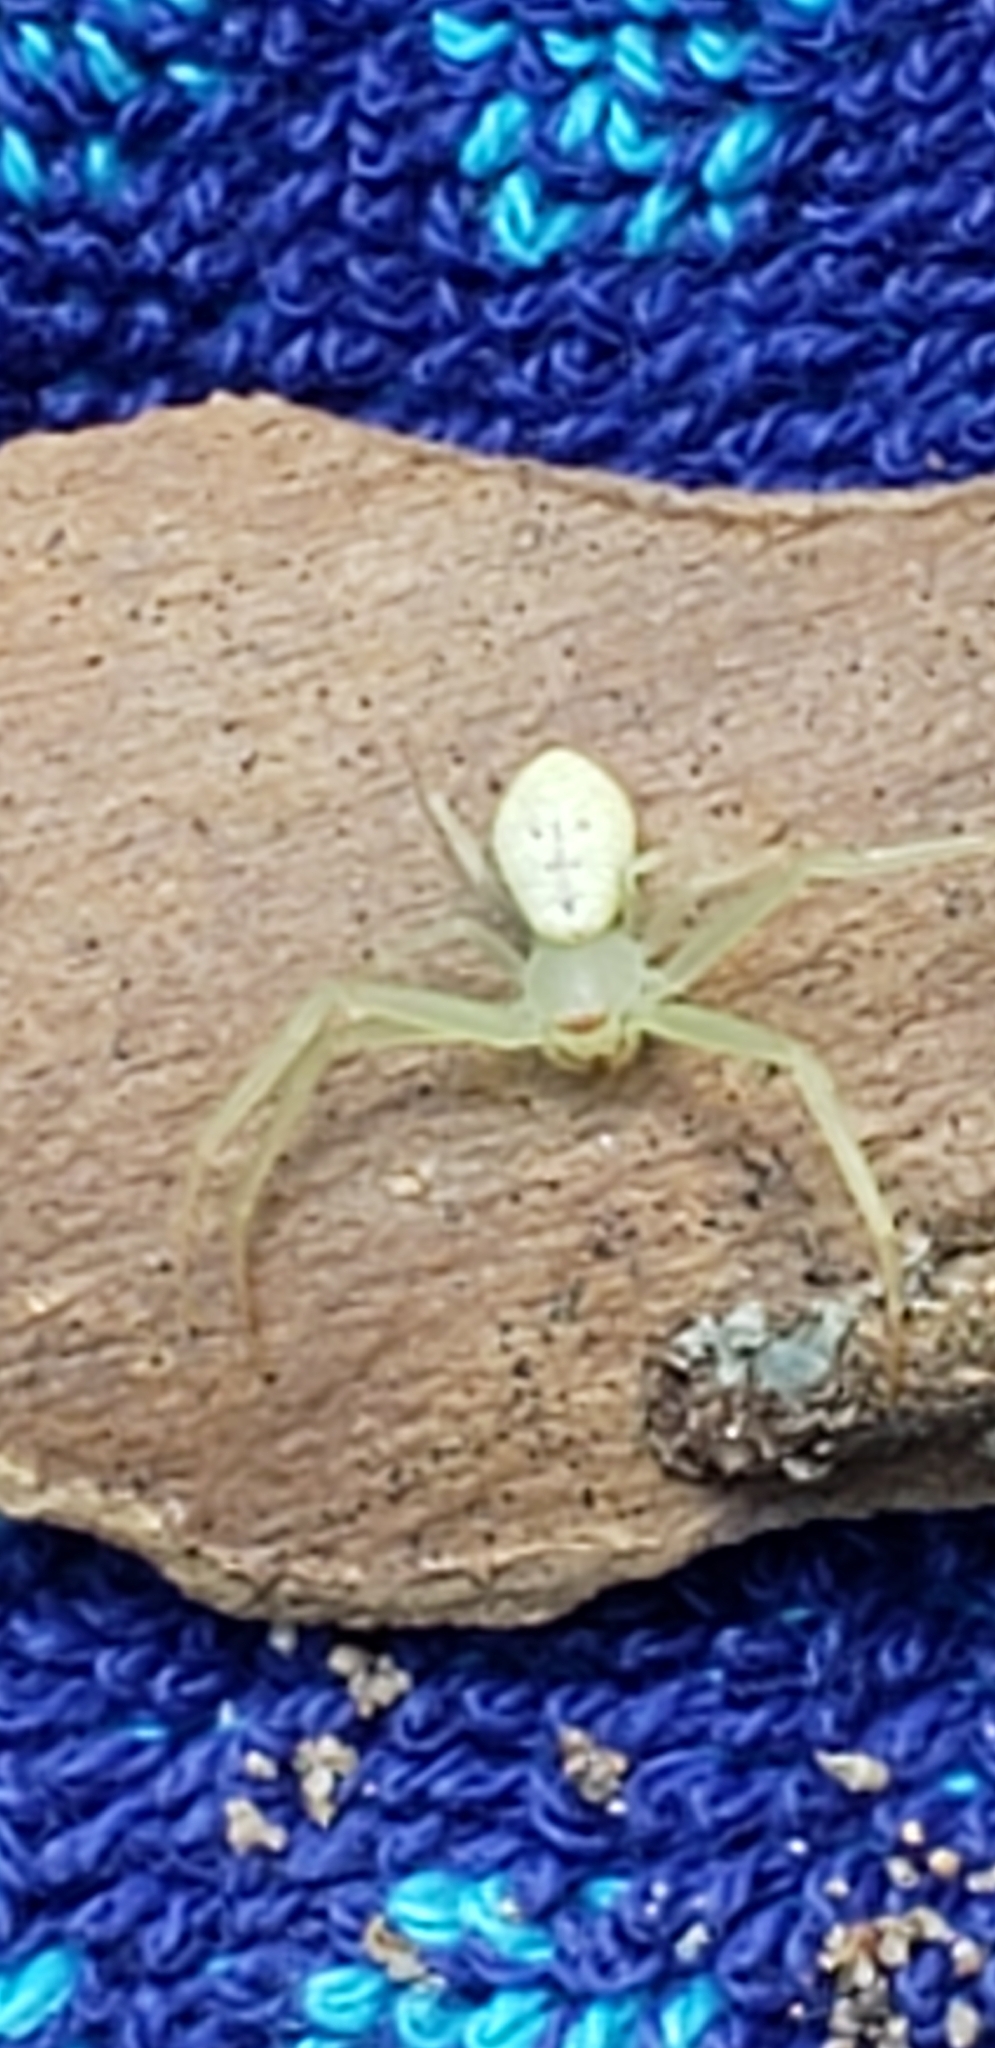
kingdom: Animalia
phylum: Arthropoda
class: Arachnida
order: Araneae
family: Thomisidae
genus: Misumessus
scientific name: Misumessus oblongus
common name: American green crab spider
